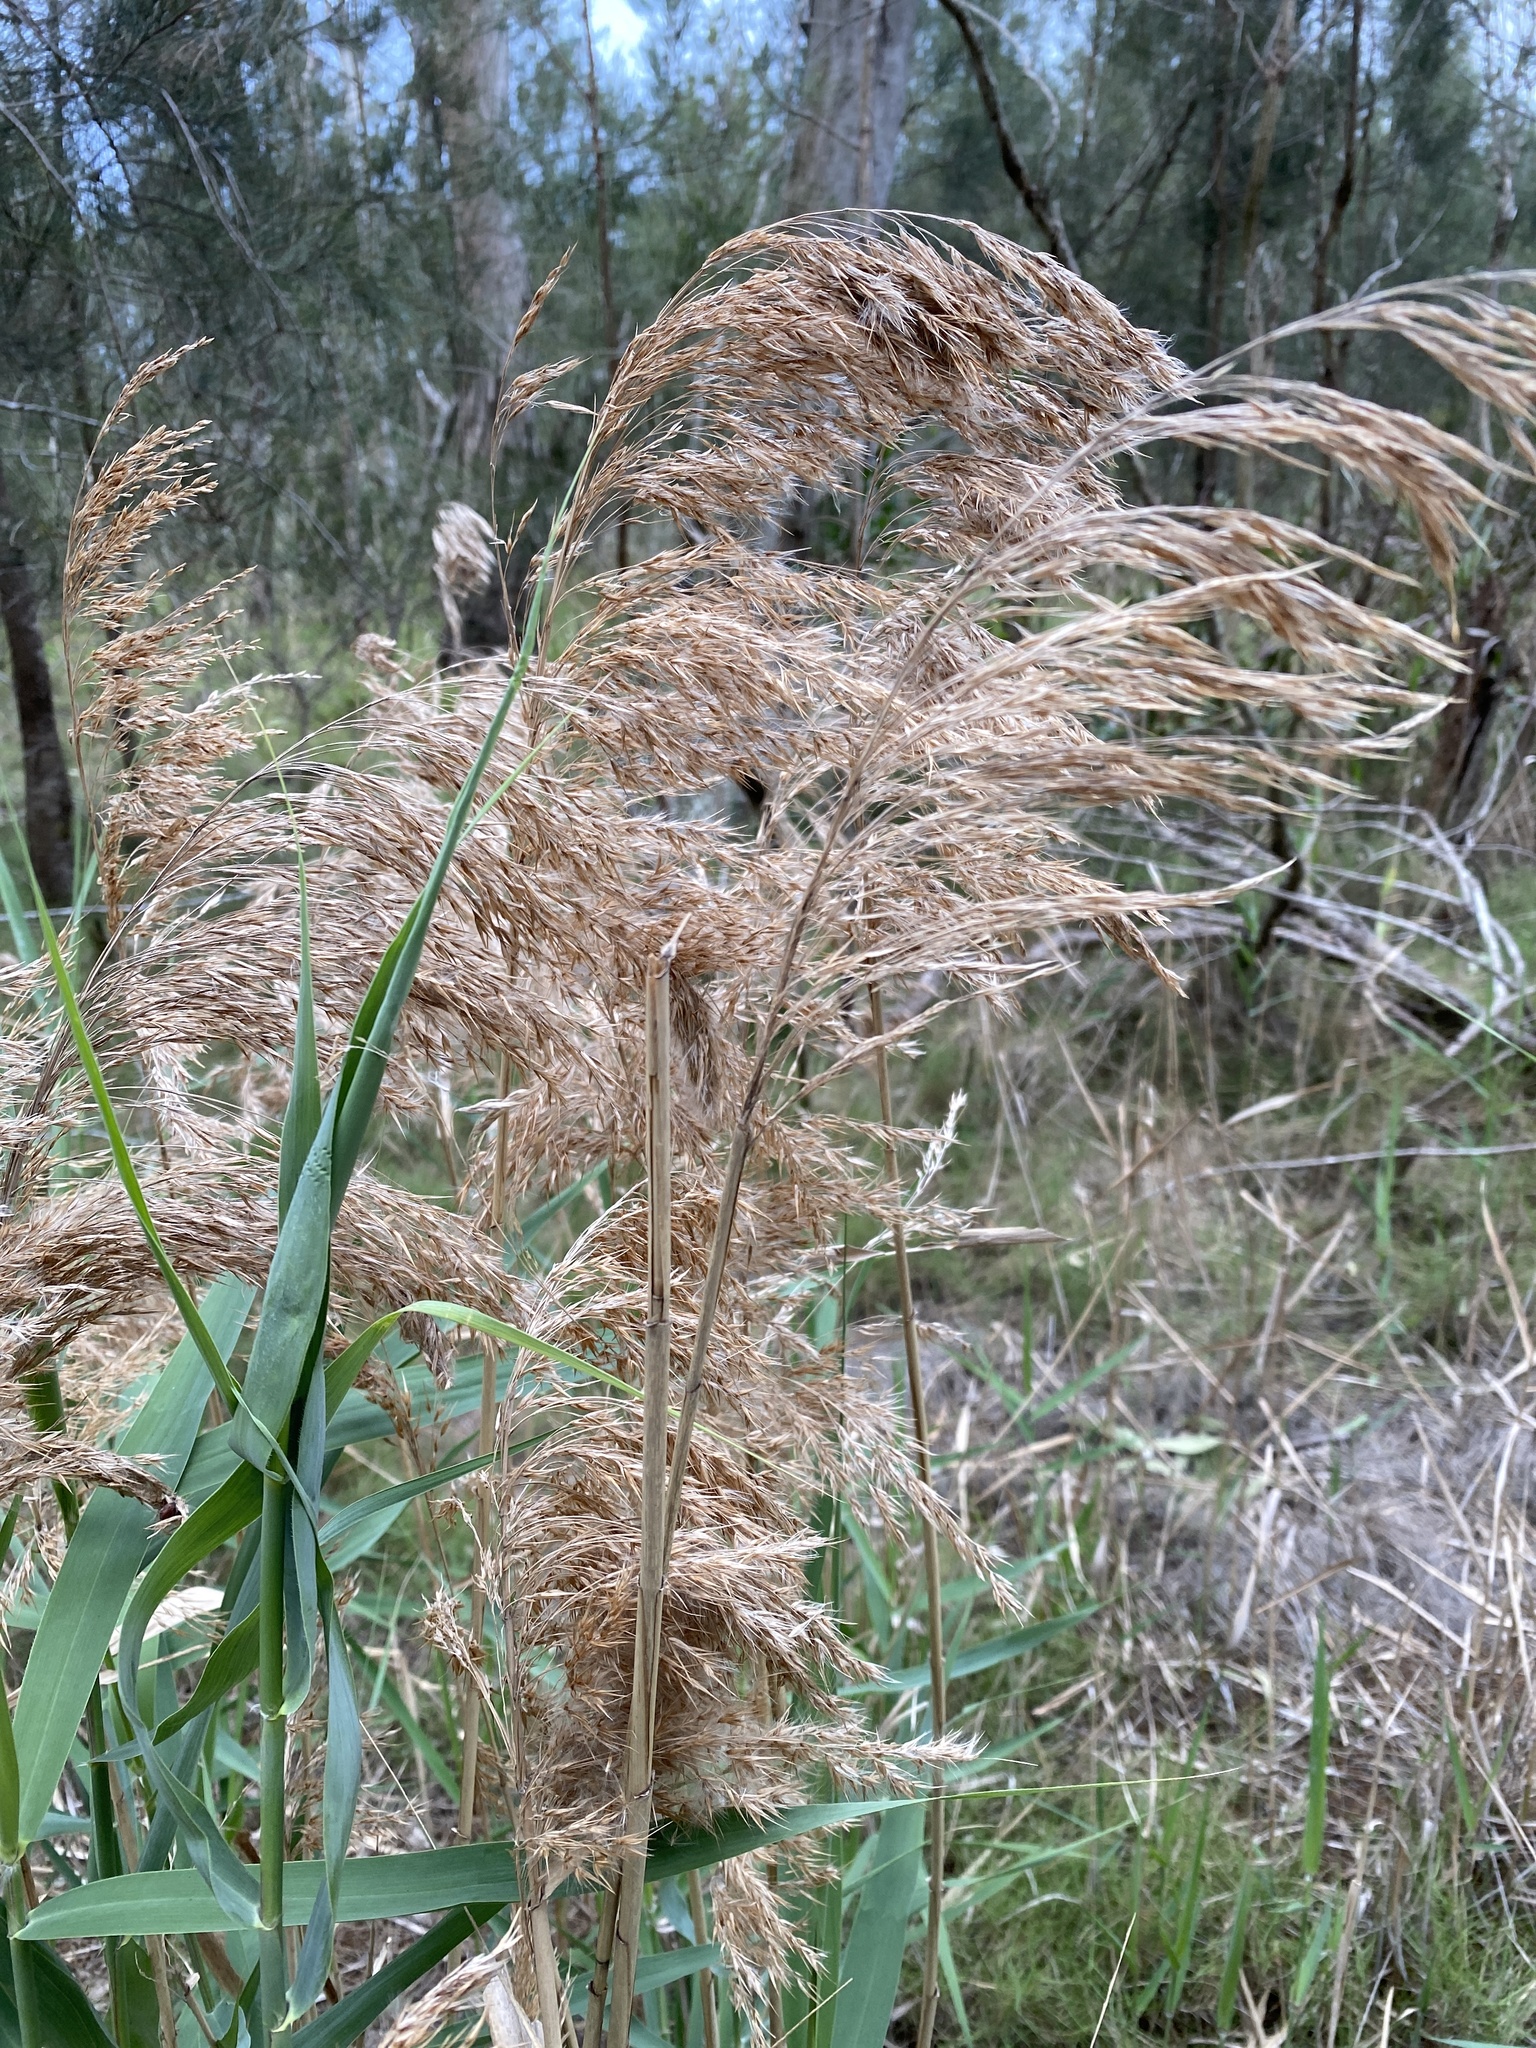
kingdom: Plantae
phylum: Tracheophyta
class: Liliopsida
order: Poales
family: Poaceae
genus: Phragmites
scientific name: Phragmites australis
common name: Common reed
